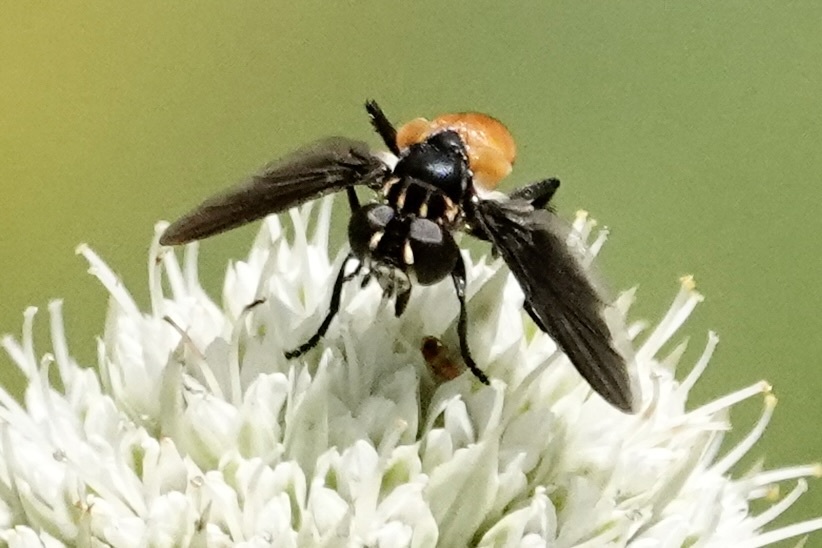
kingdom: Animalia
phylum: Arthropoda
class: Insecta
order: Diptera
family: Tachinidae
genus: Trichopoda
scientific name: Trichopoda pennipes
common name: Tachinid fly
